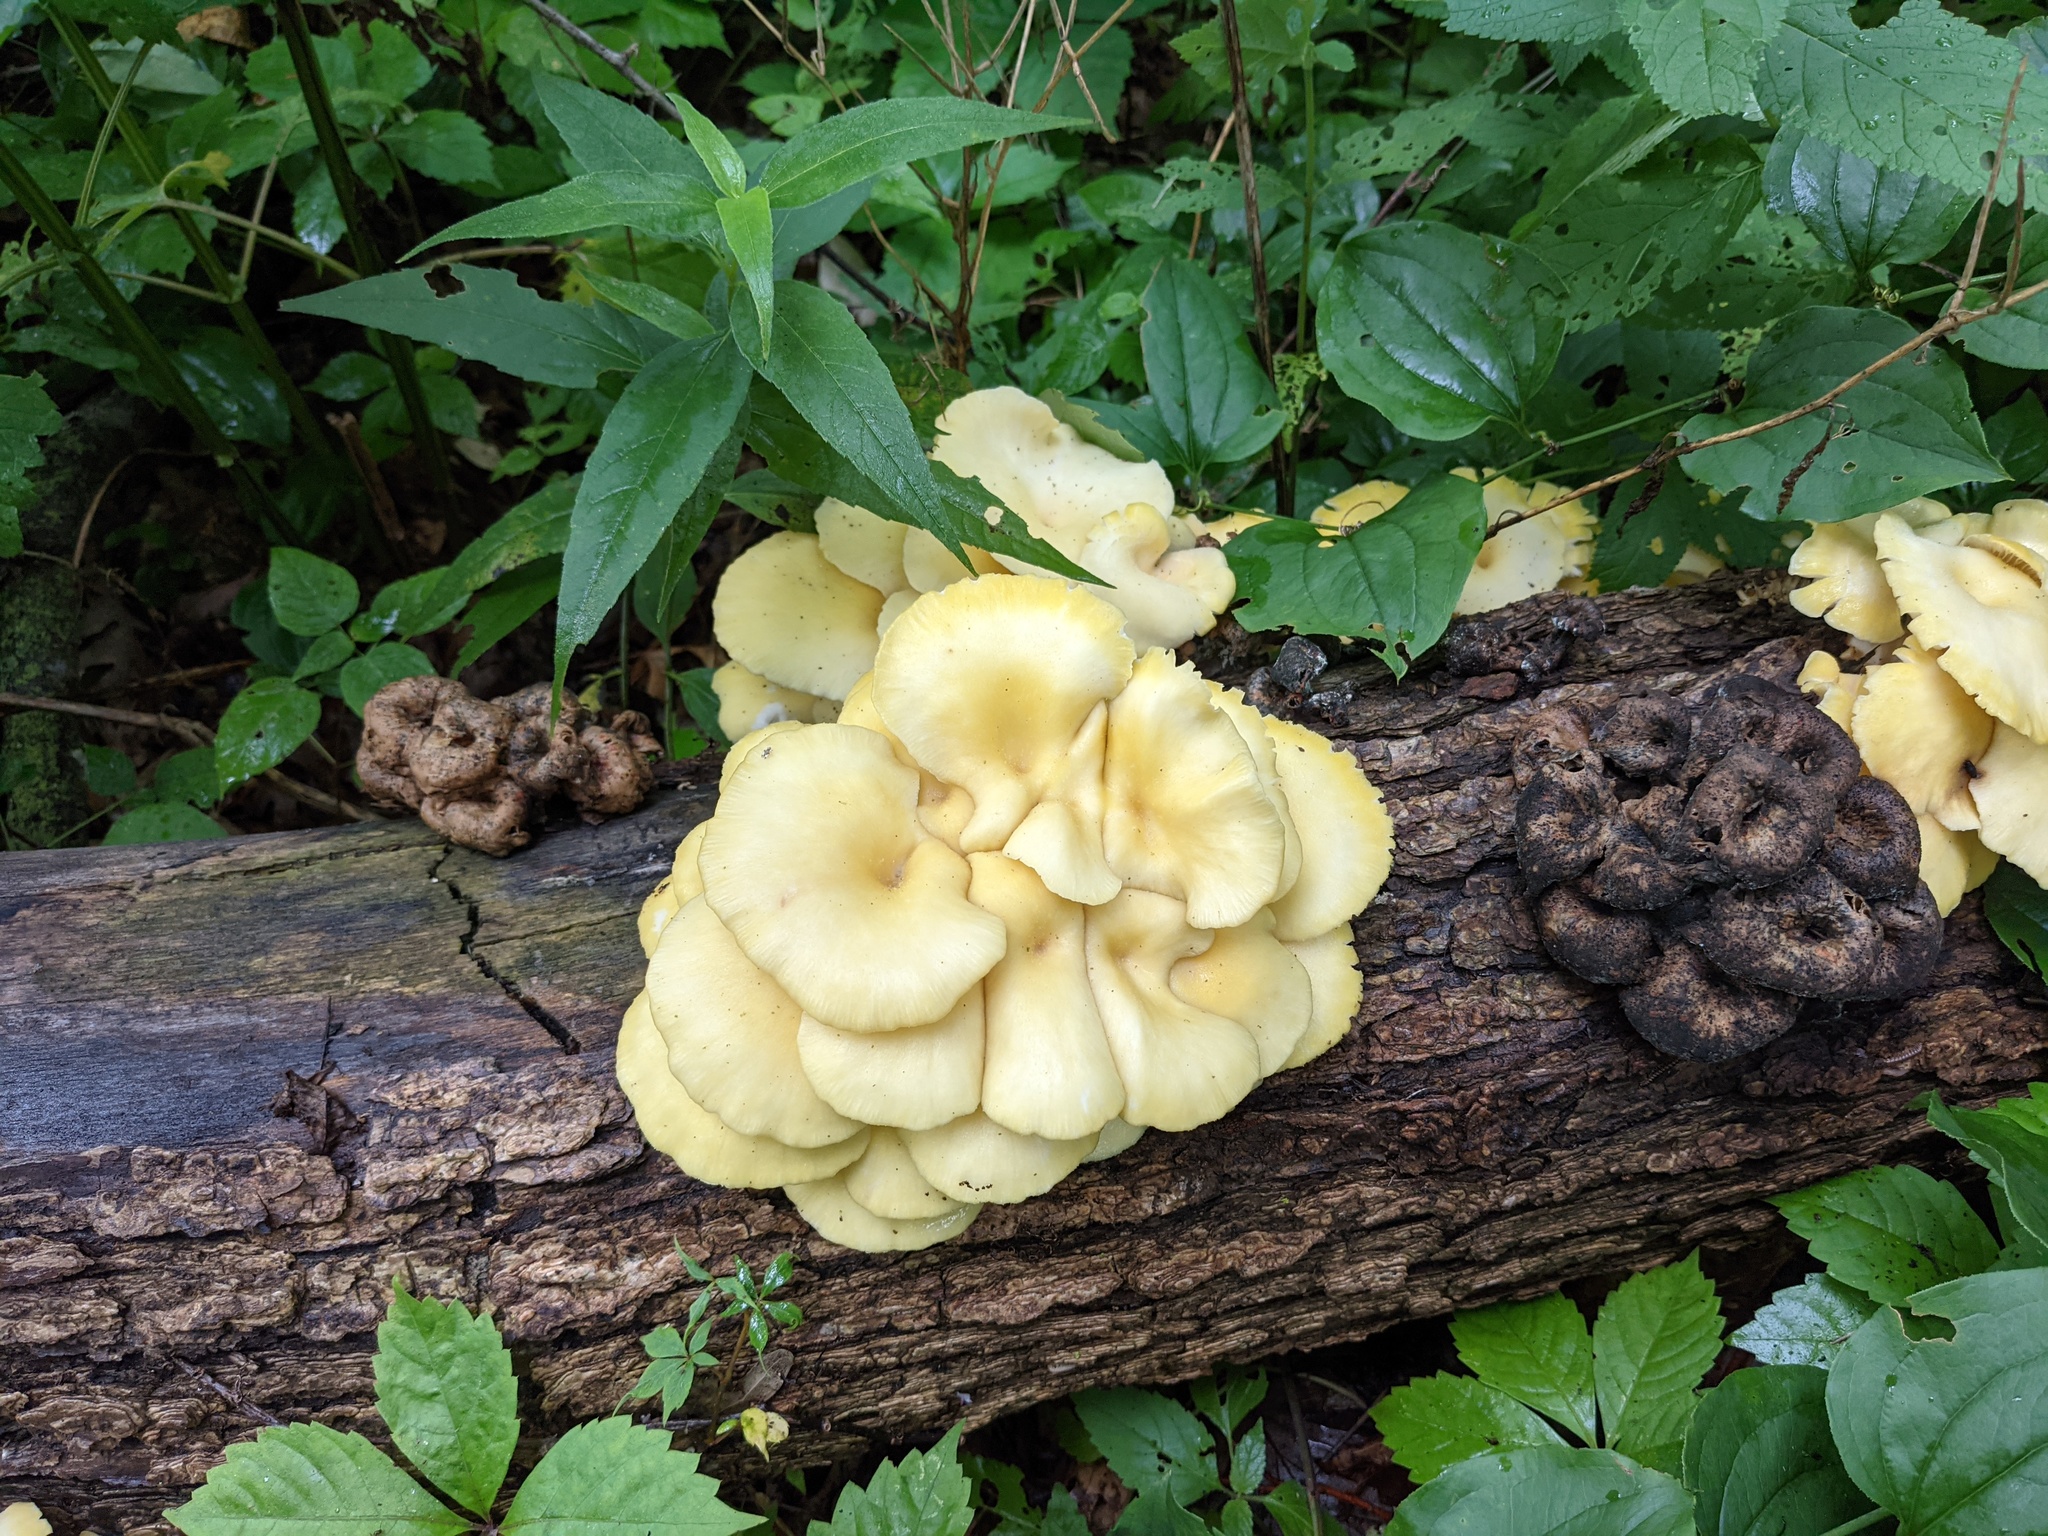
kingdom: Fungi
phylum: Basidiomycota
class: Agaricomycetes
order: Agaricales
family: Pleurotaceae
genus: Pleurotus
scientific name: Pleurotus citrinopileatus
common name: Golden oyster mushroom
